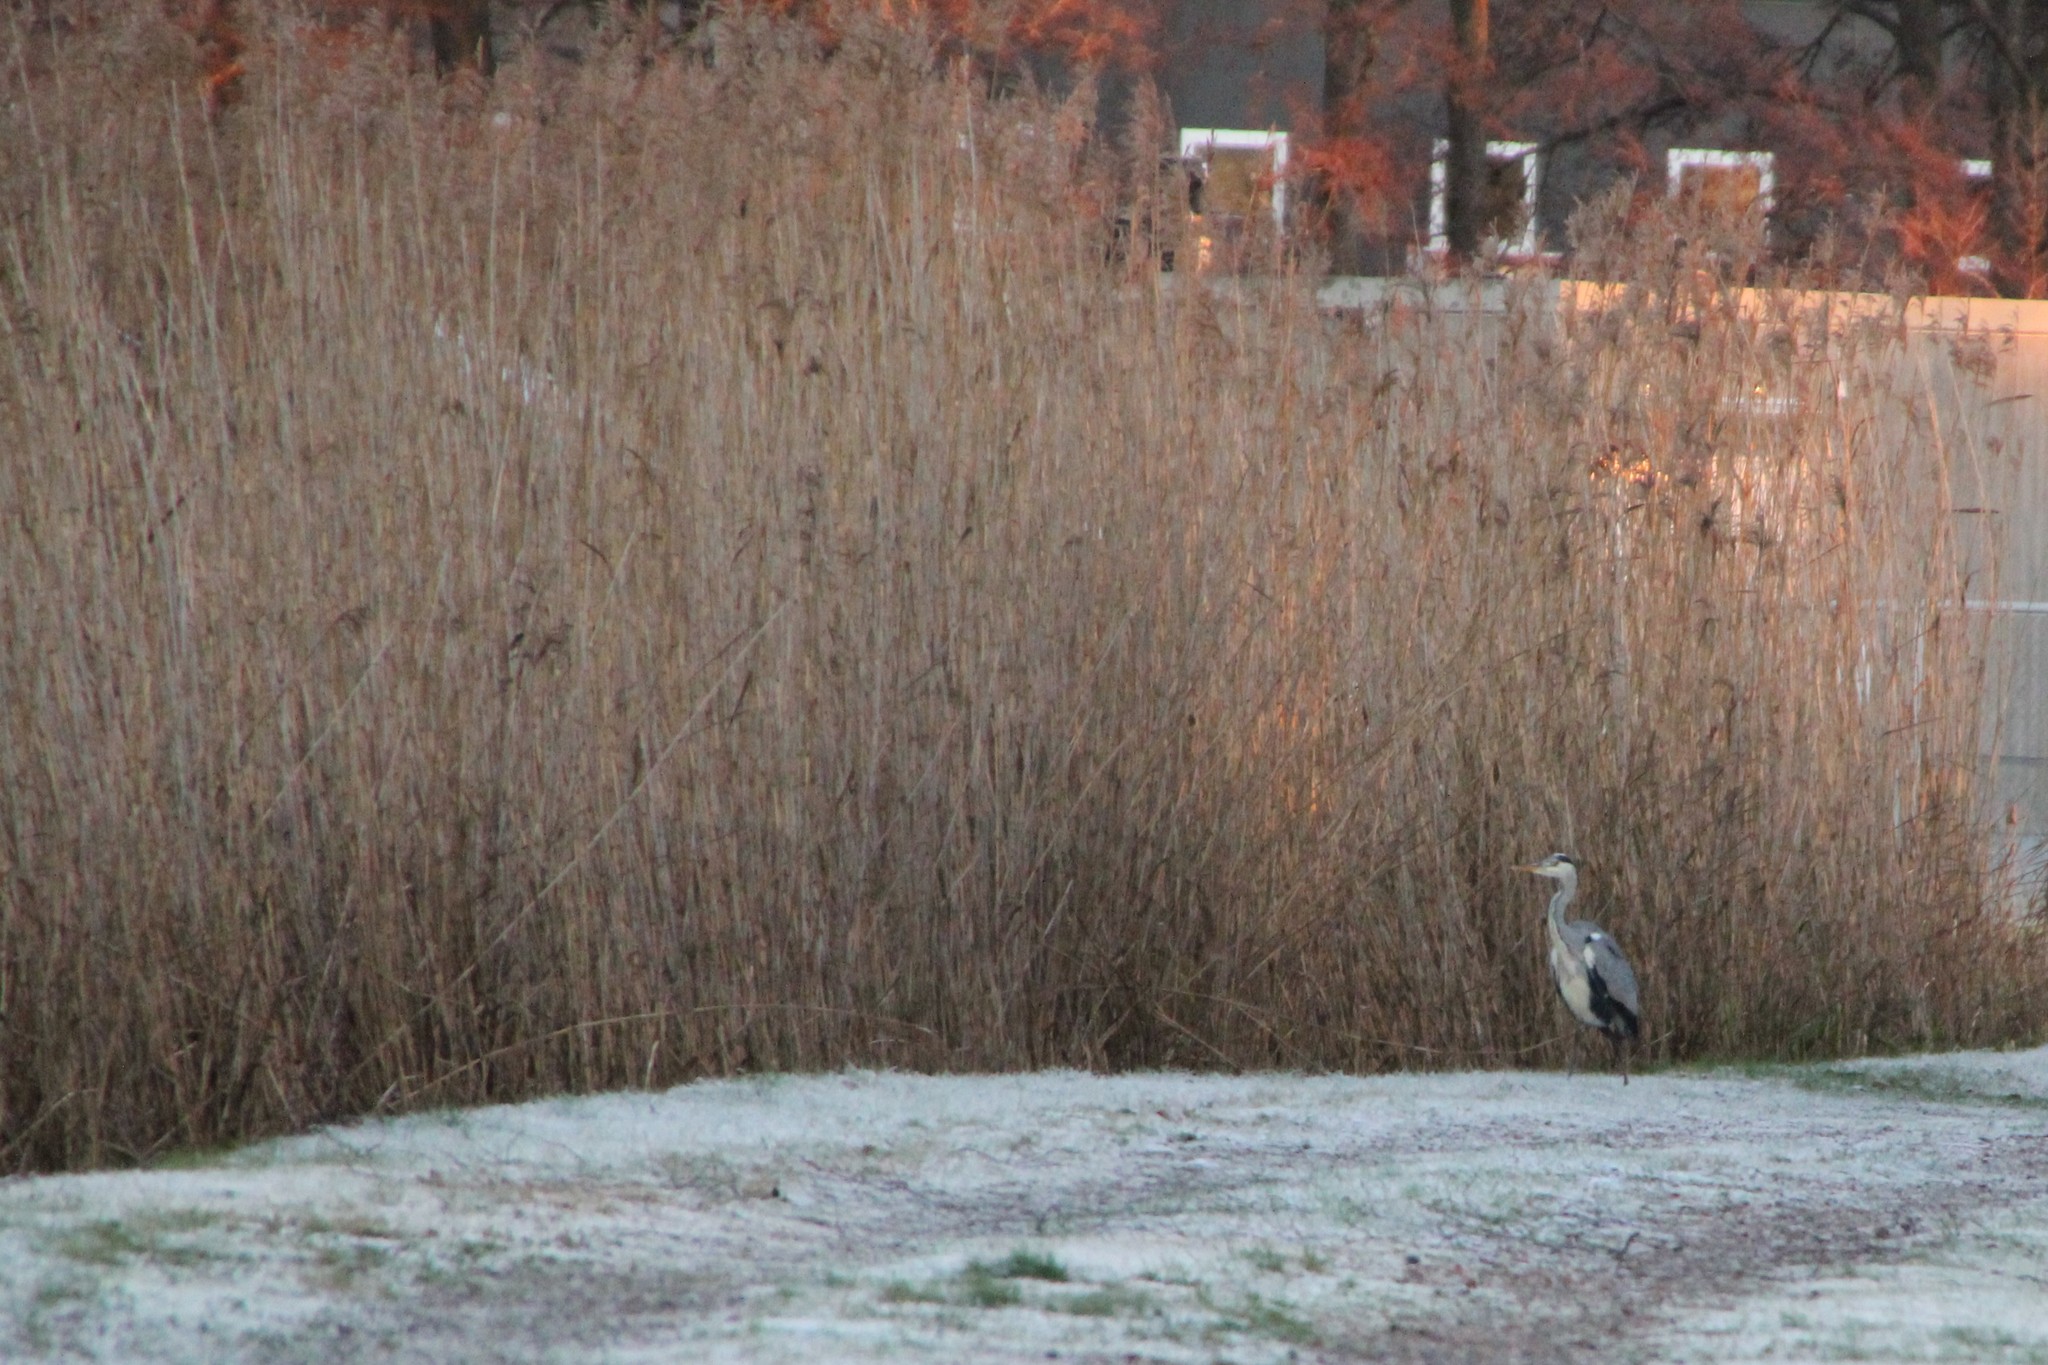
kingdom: Animalia
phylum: Chordata
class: Aves
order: Pelecaniformes
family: Ardeidae
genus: Ardea
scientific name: Ardea cinerea
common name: Grey heron
